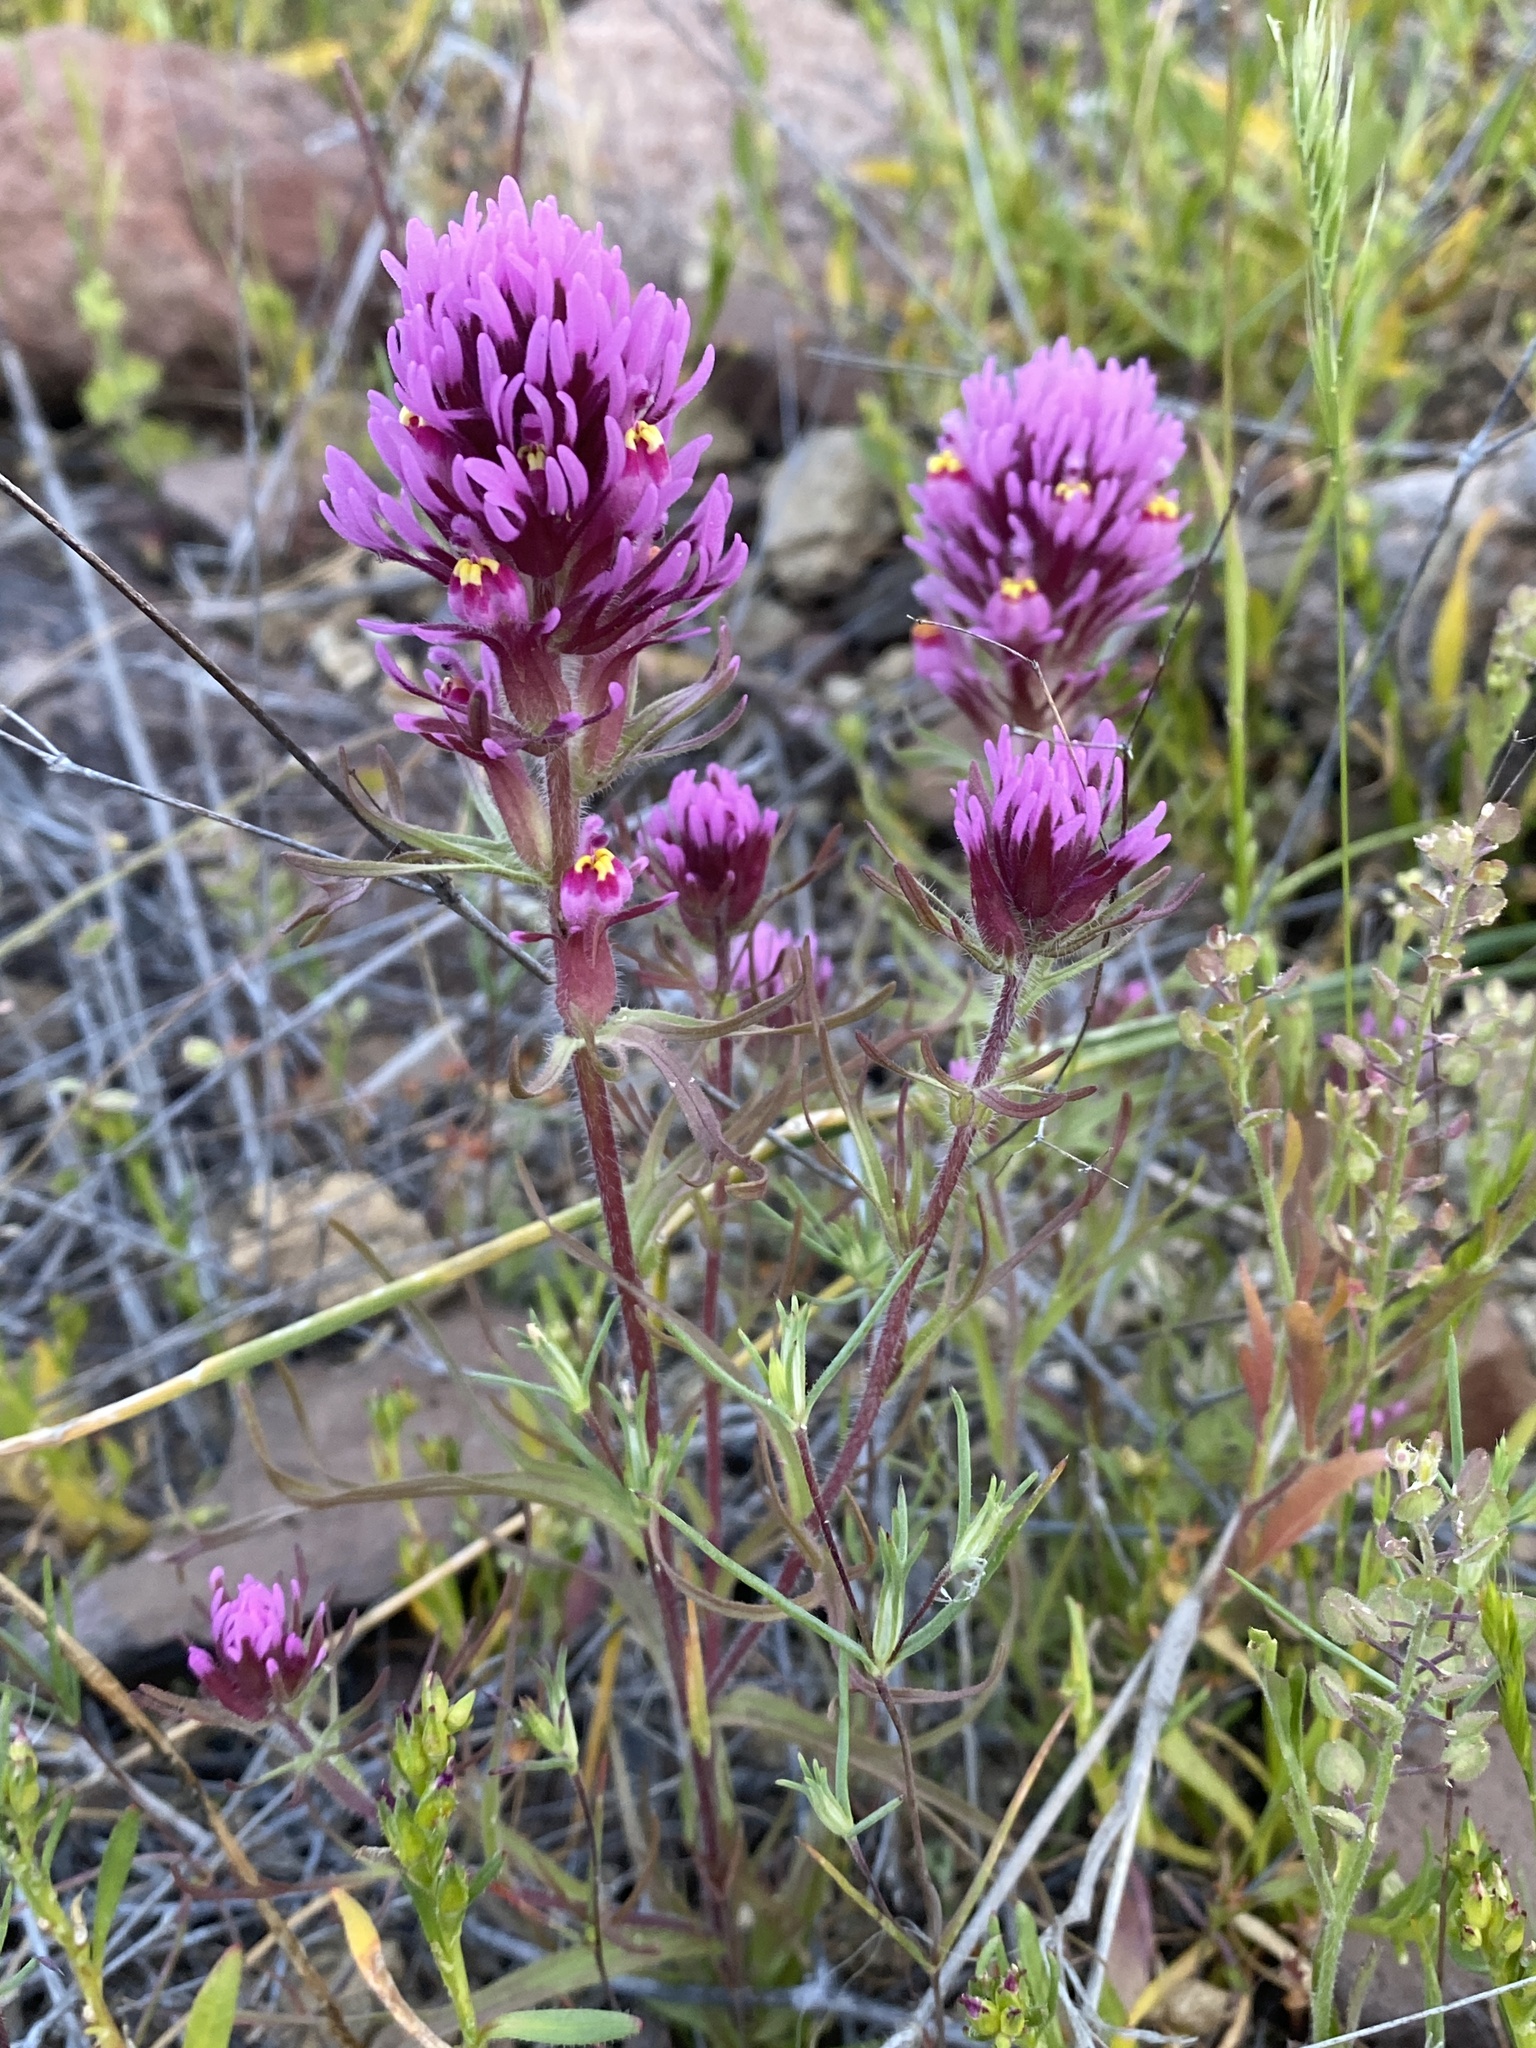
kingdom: Plantae
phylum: Tracheophyta
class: Magnoliopsida
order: Lamiales
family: Orobanchaceae
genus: Castilleja
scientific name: Castilleja exserta
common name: Purple owl-clover
